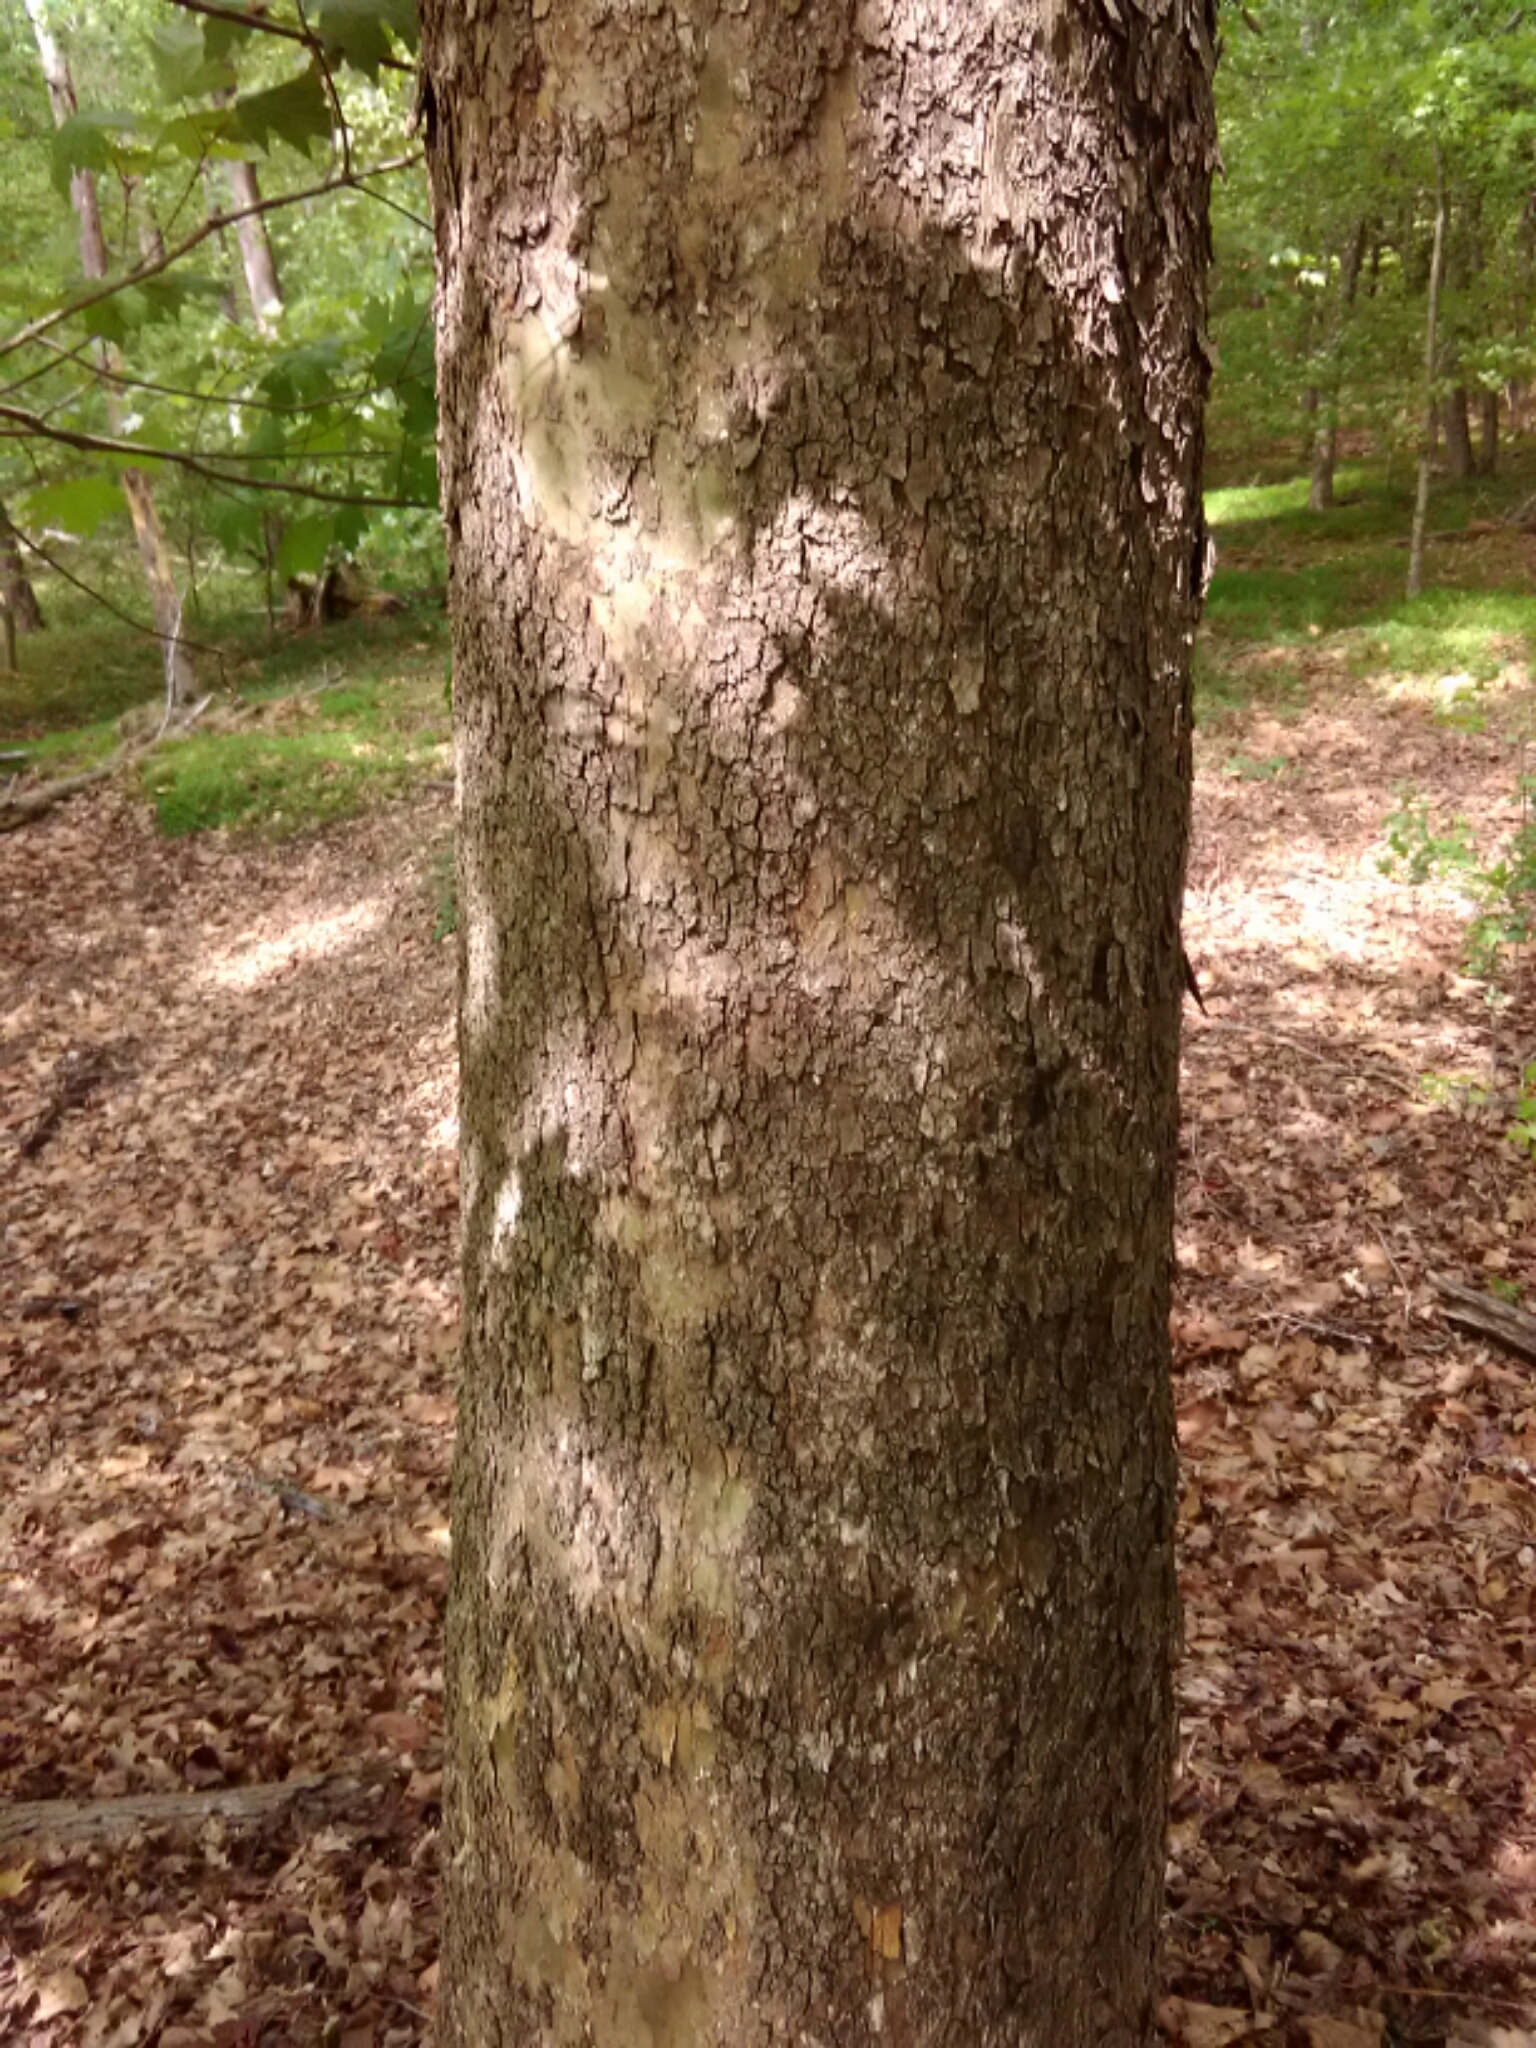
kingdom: Plantae
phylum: Tracheophyta
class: Magnoliopsida
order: Proteales
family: Platanaceae
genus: Platanus
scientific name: Platanus occidentalis
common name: American sycamore
